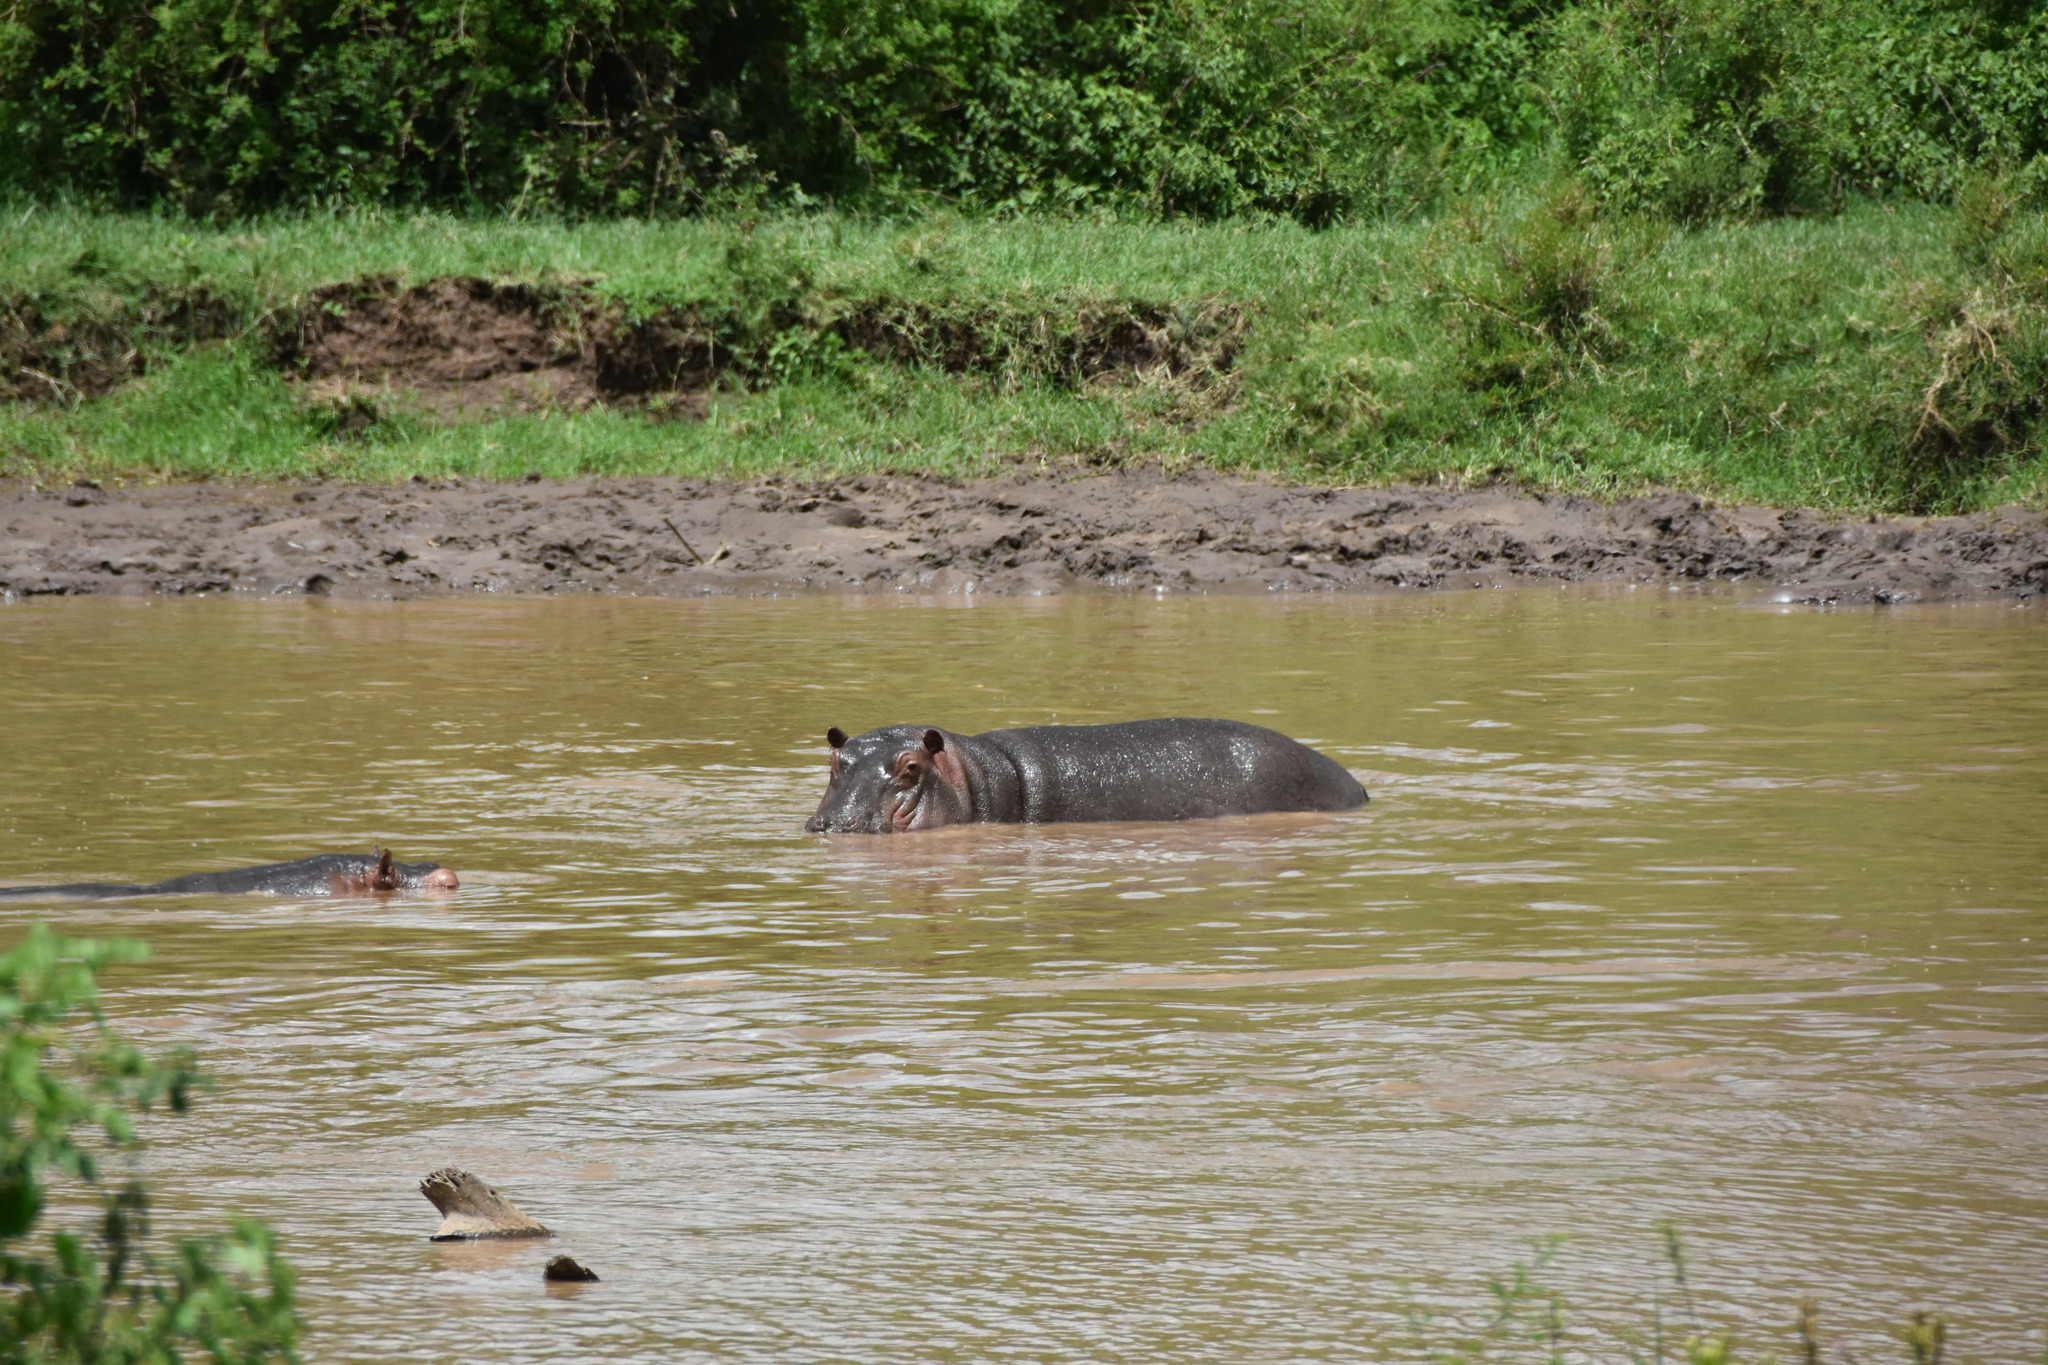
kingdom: Animalia
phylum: Chordata
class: Mammalia
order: Artiodactyla
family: Hippopotamidae
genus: Hippopotamus
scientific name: Hippopotamus amphibius
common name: Common hippopotamus
